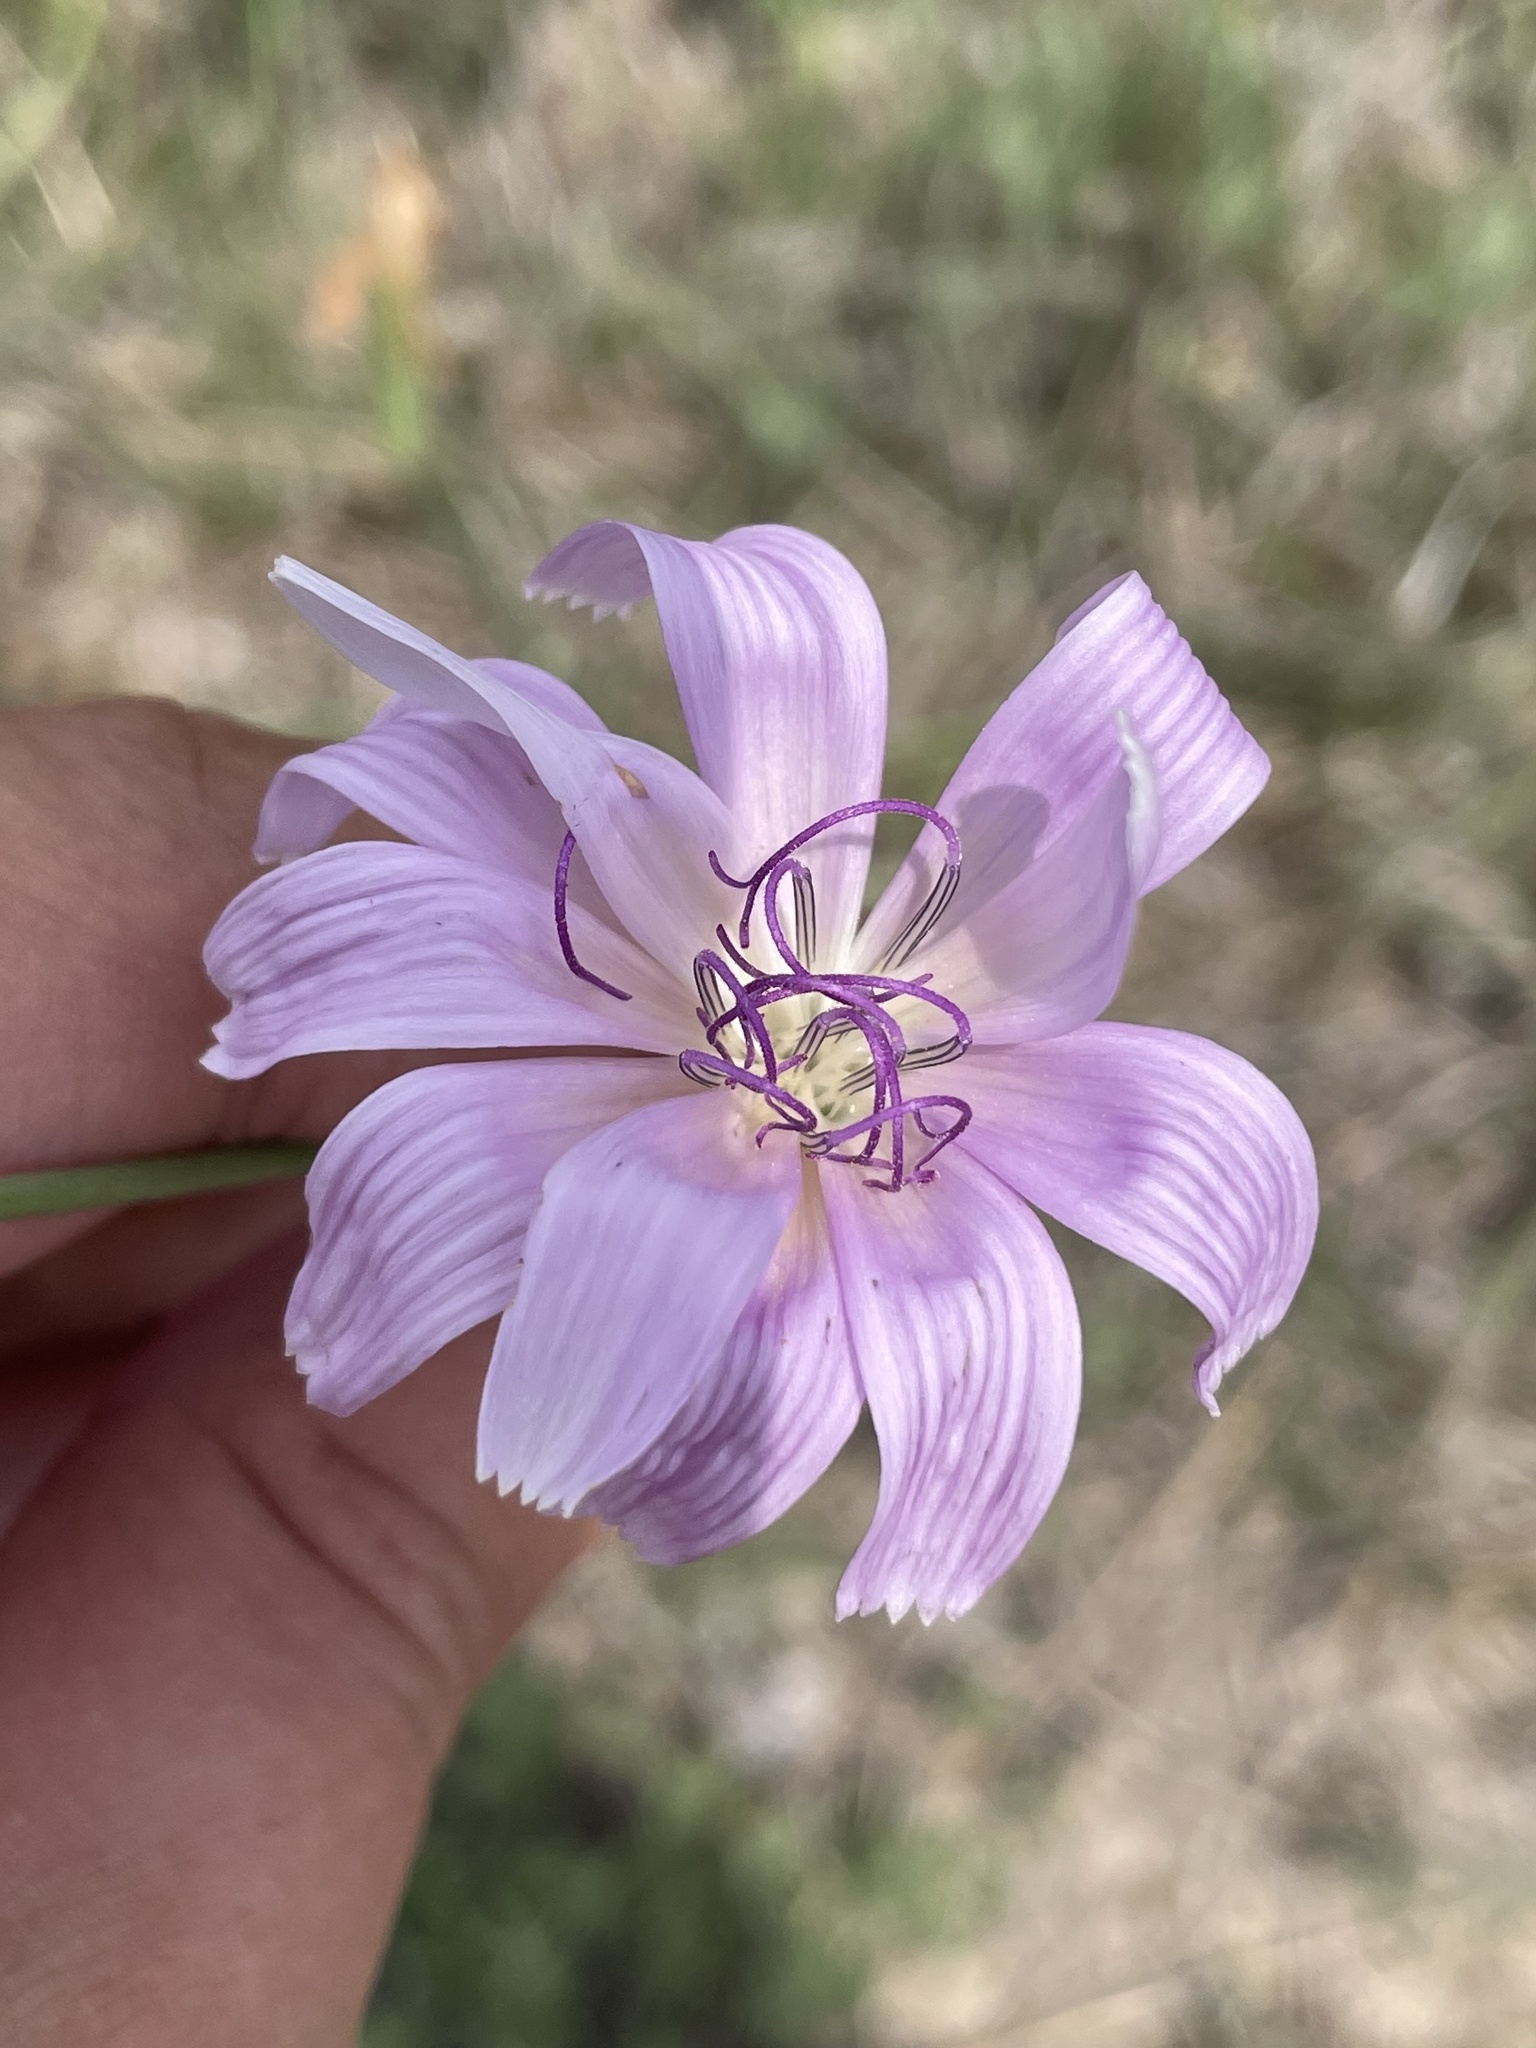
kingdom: Plantae
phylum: Tracheophyta
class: Magnoliopsida
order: Asterales
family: Asteraceae
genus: Lygodesmia
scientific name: Lygodesmia texana
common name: Texas skeleton-plant
